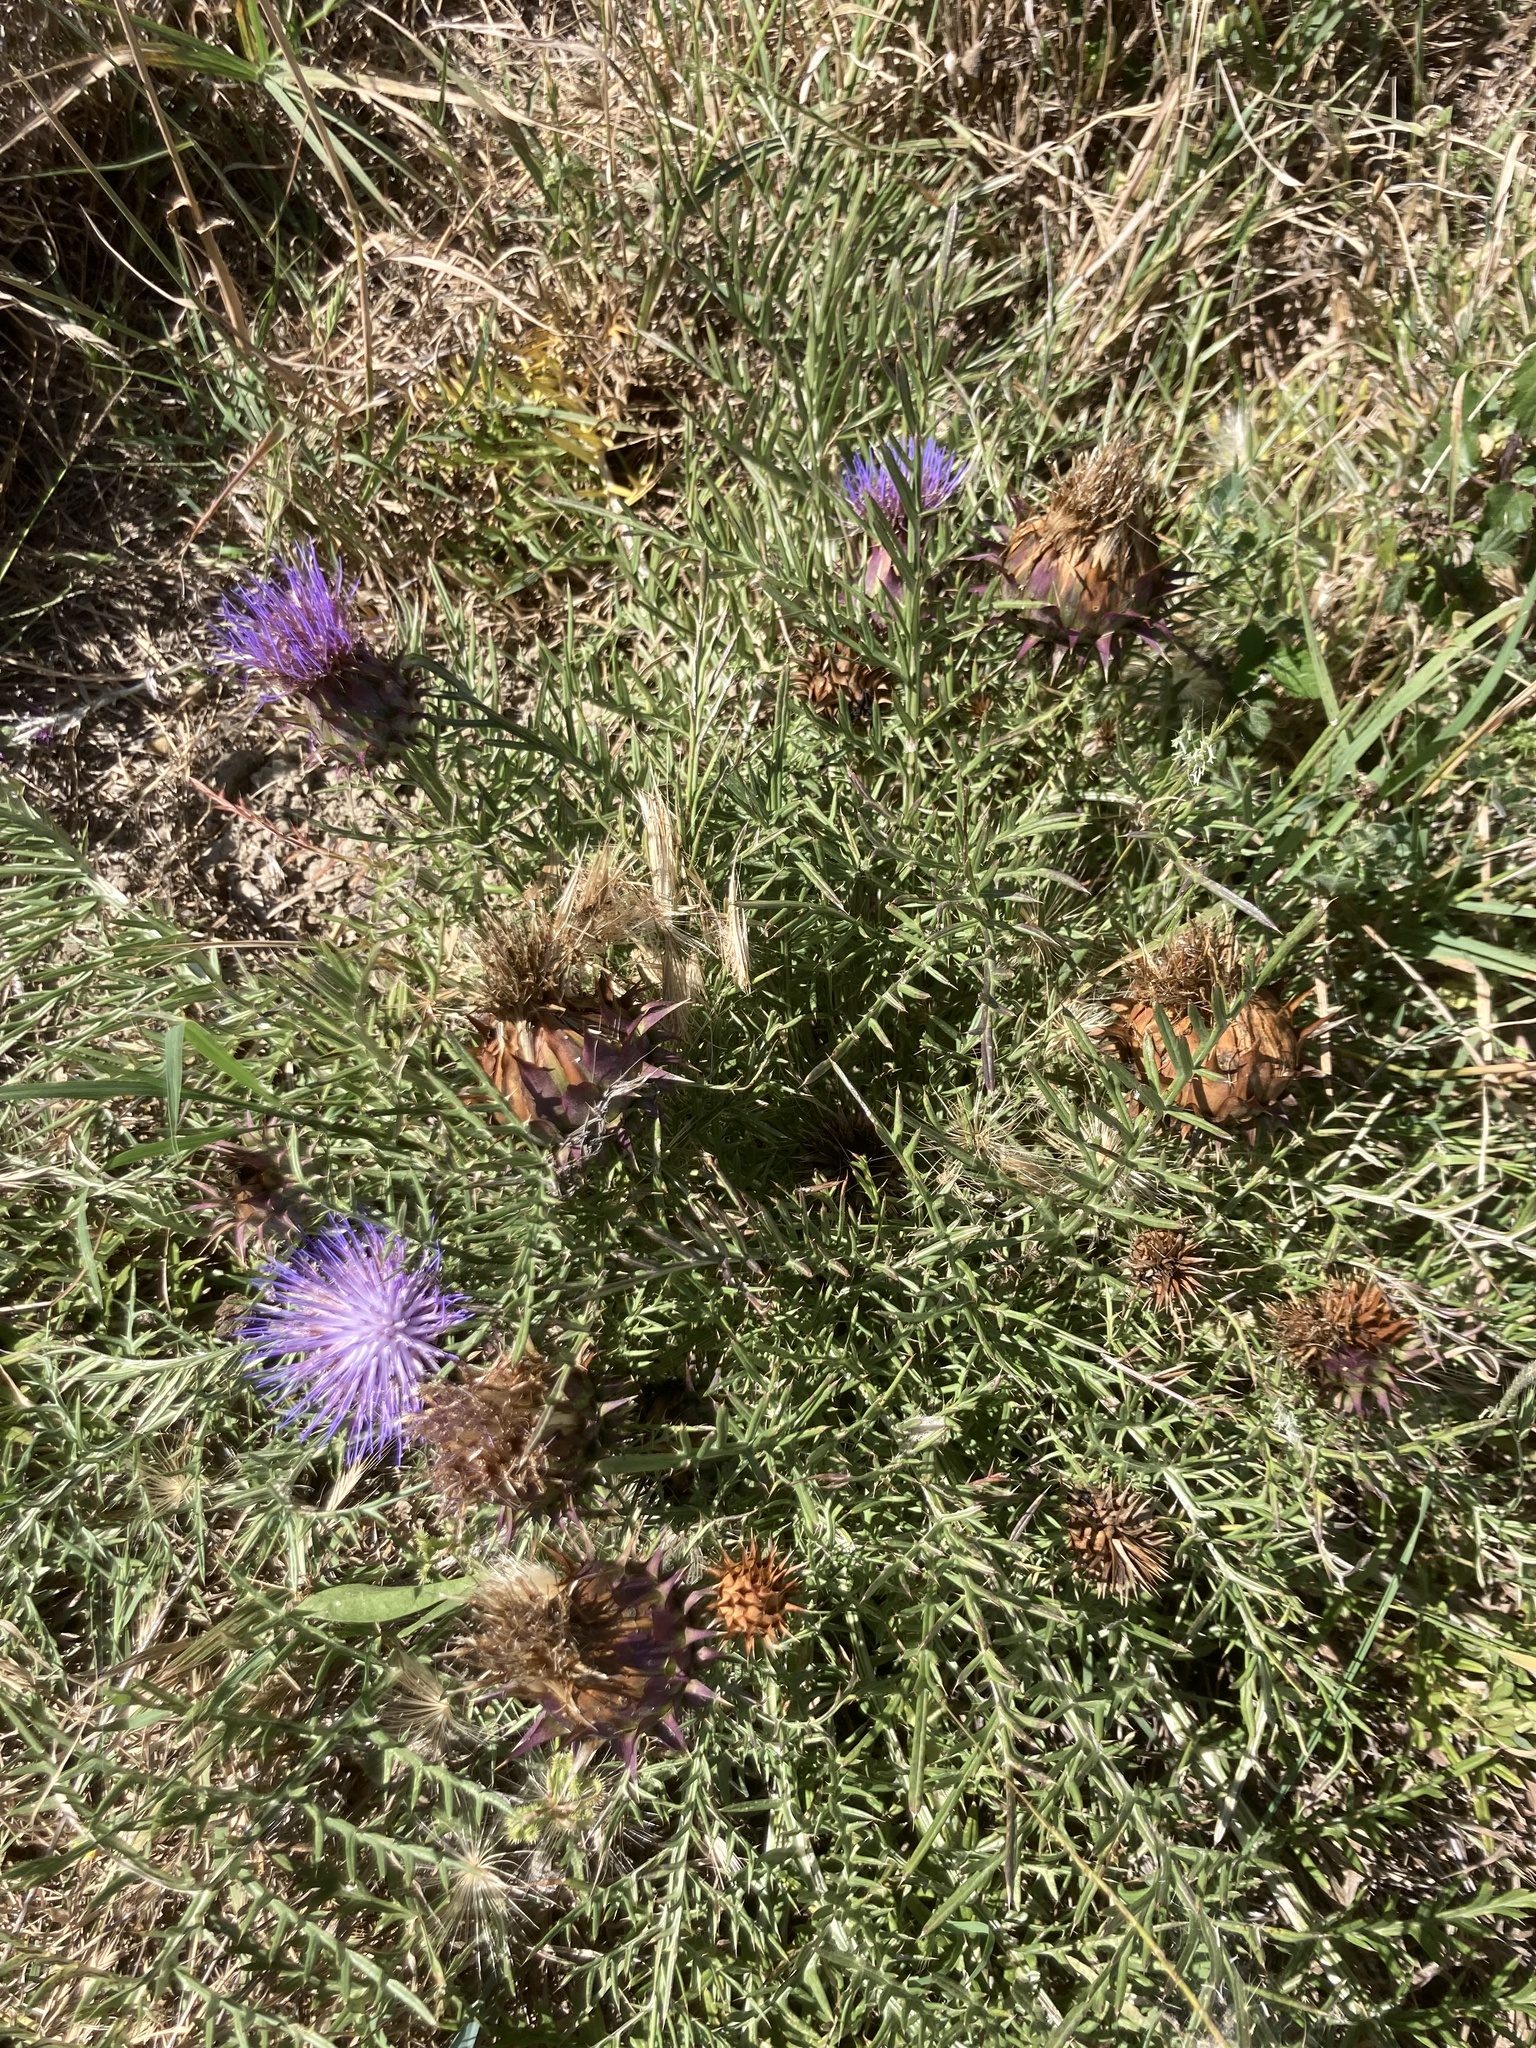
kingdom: Plantae
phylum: Tracheophyta
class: Magnoliopsida
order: Asterales
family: Asteraceae
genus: Cynara
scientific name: Cynara humilis
